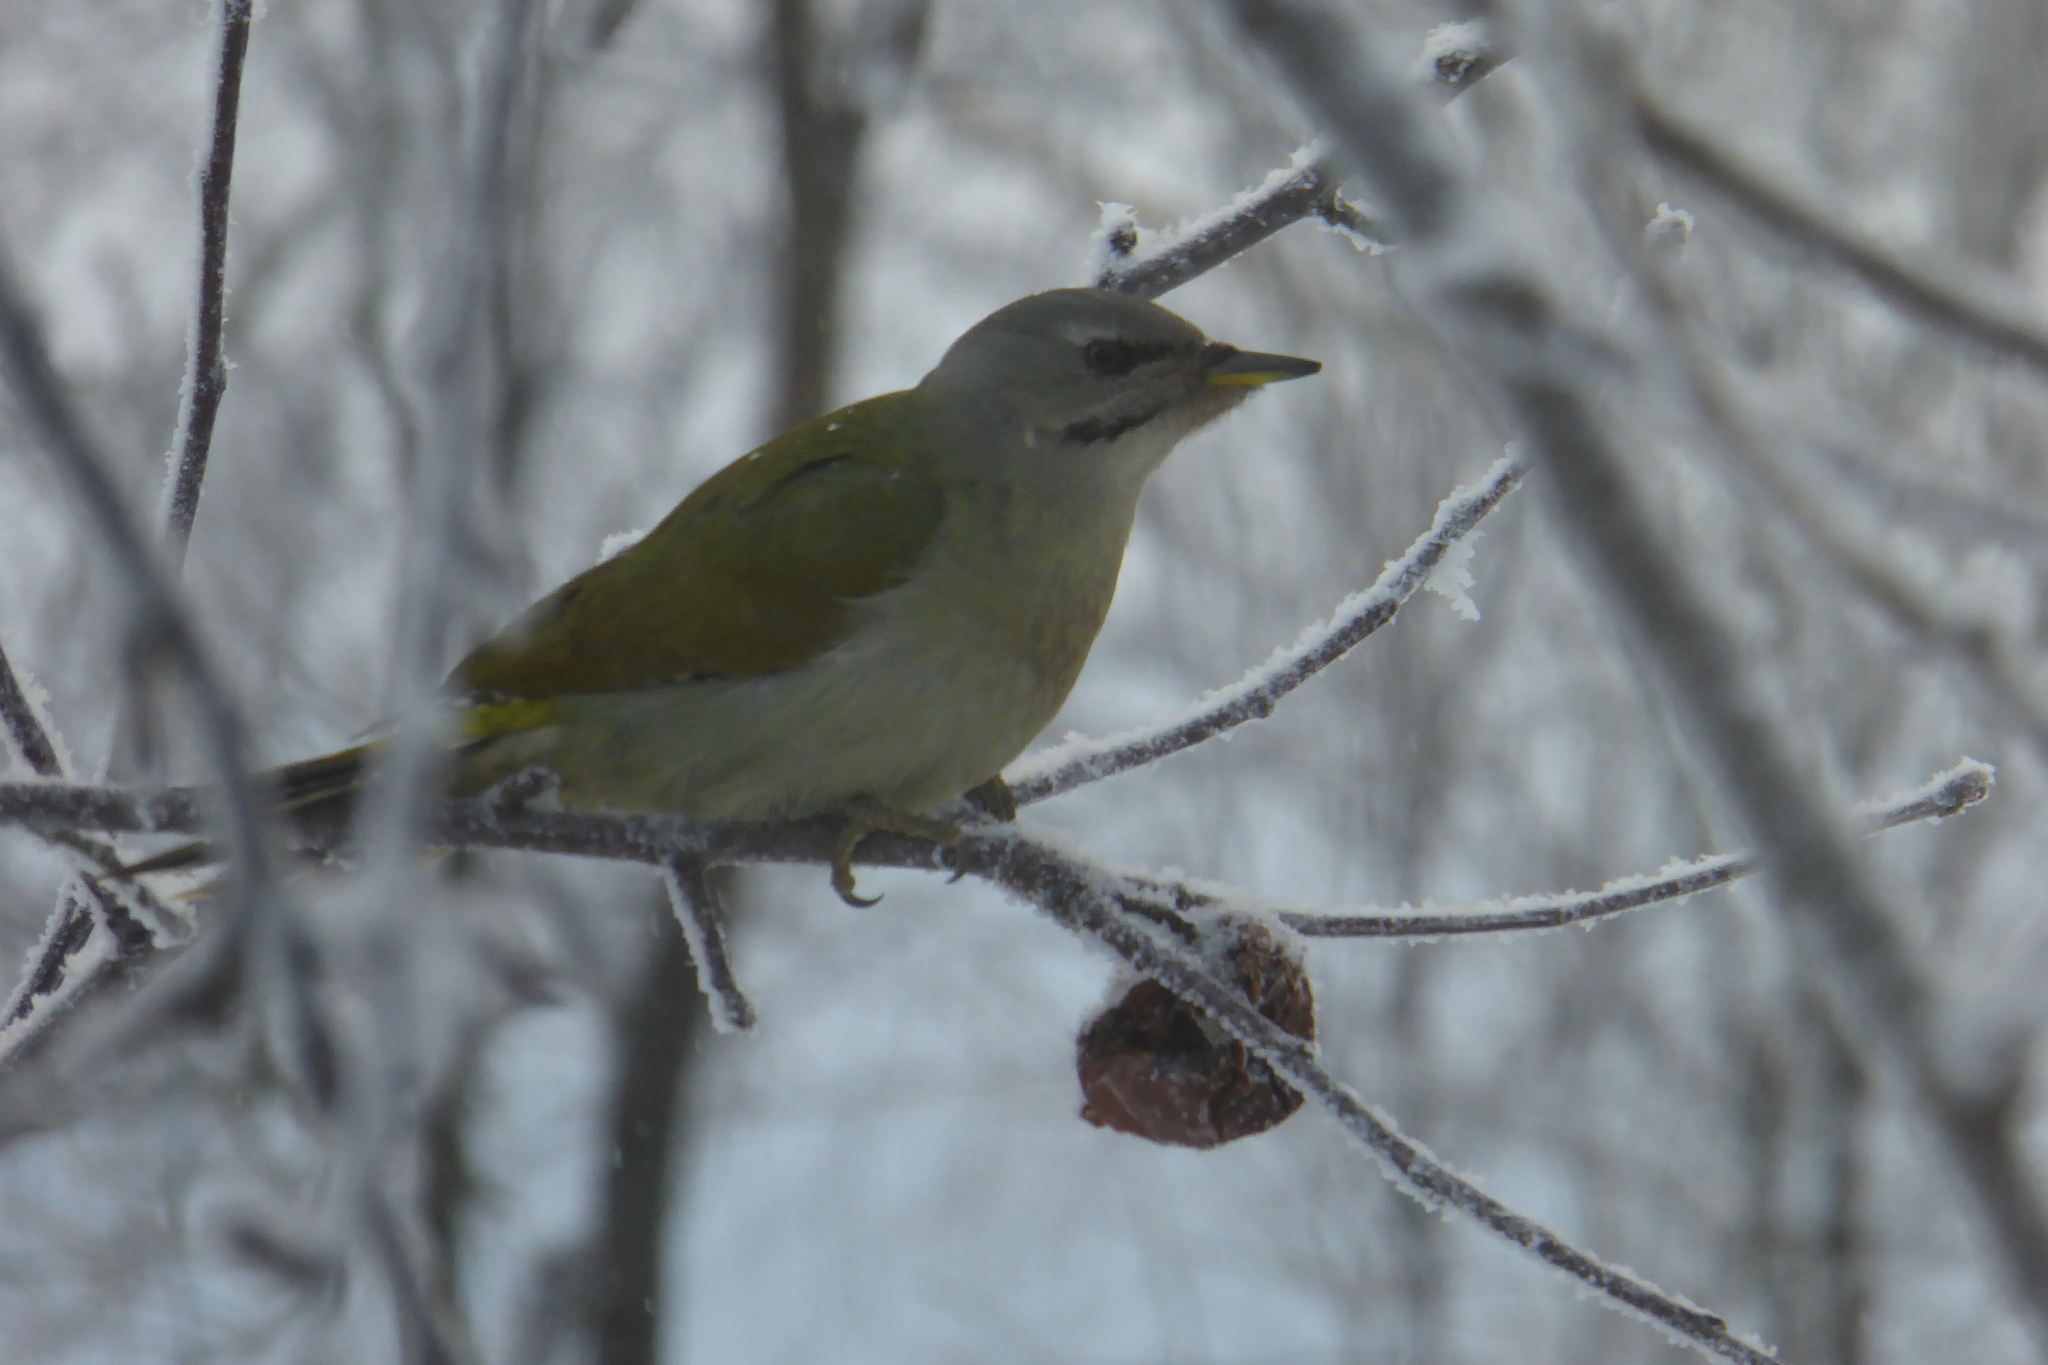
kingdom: Animalia
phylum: Chordata
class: Aves
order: Piciformes
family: Picidae
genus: Picus
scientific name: Picus canus
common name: Grey-headed woodpecker
